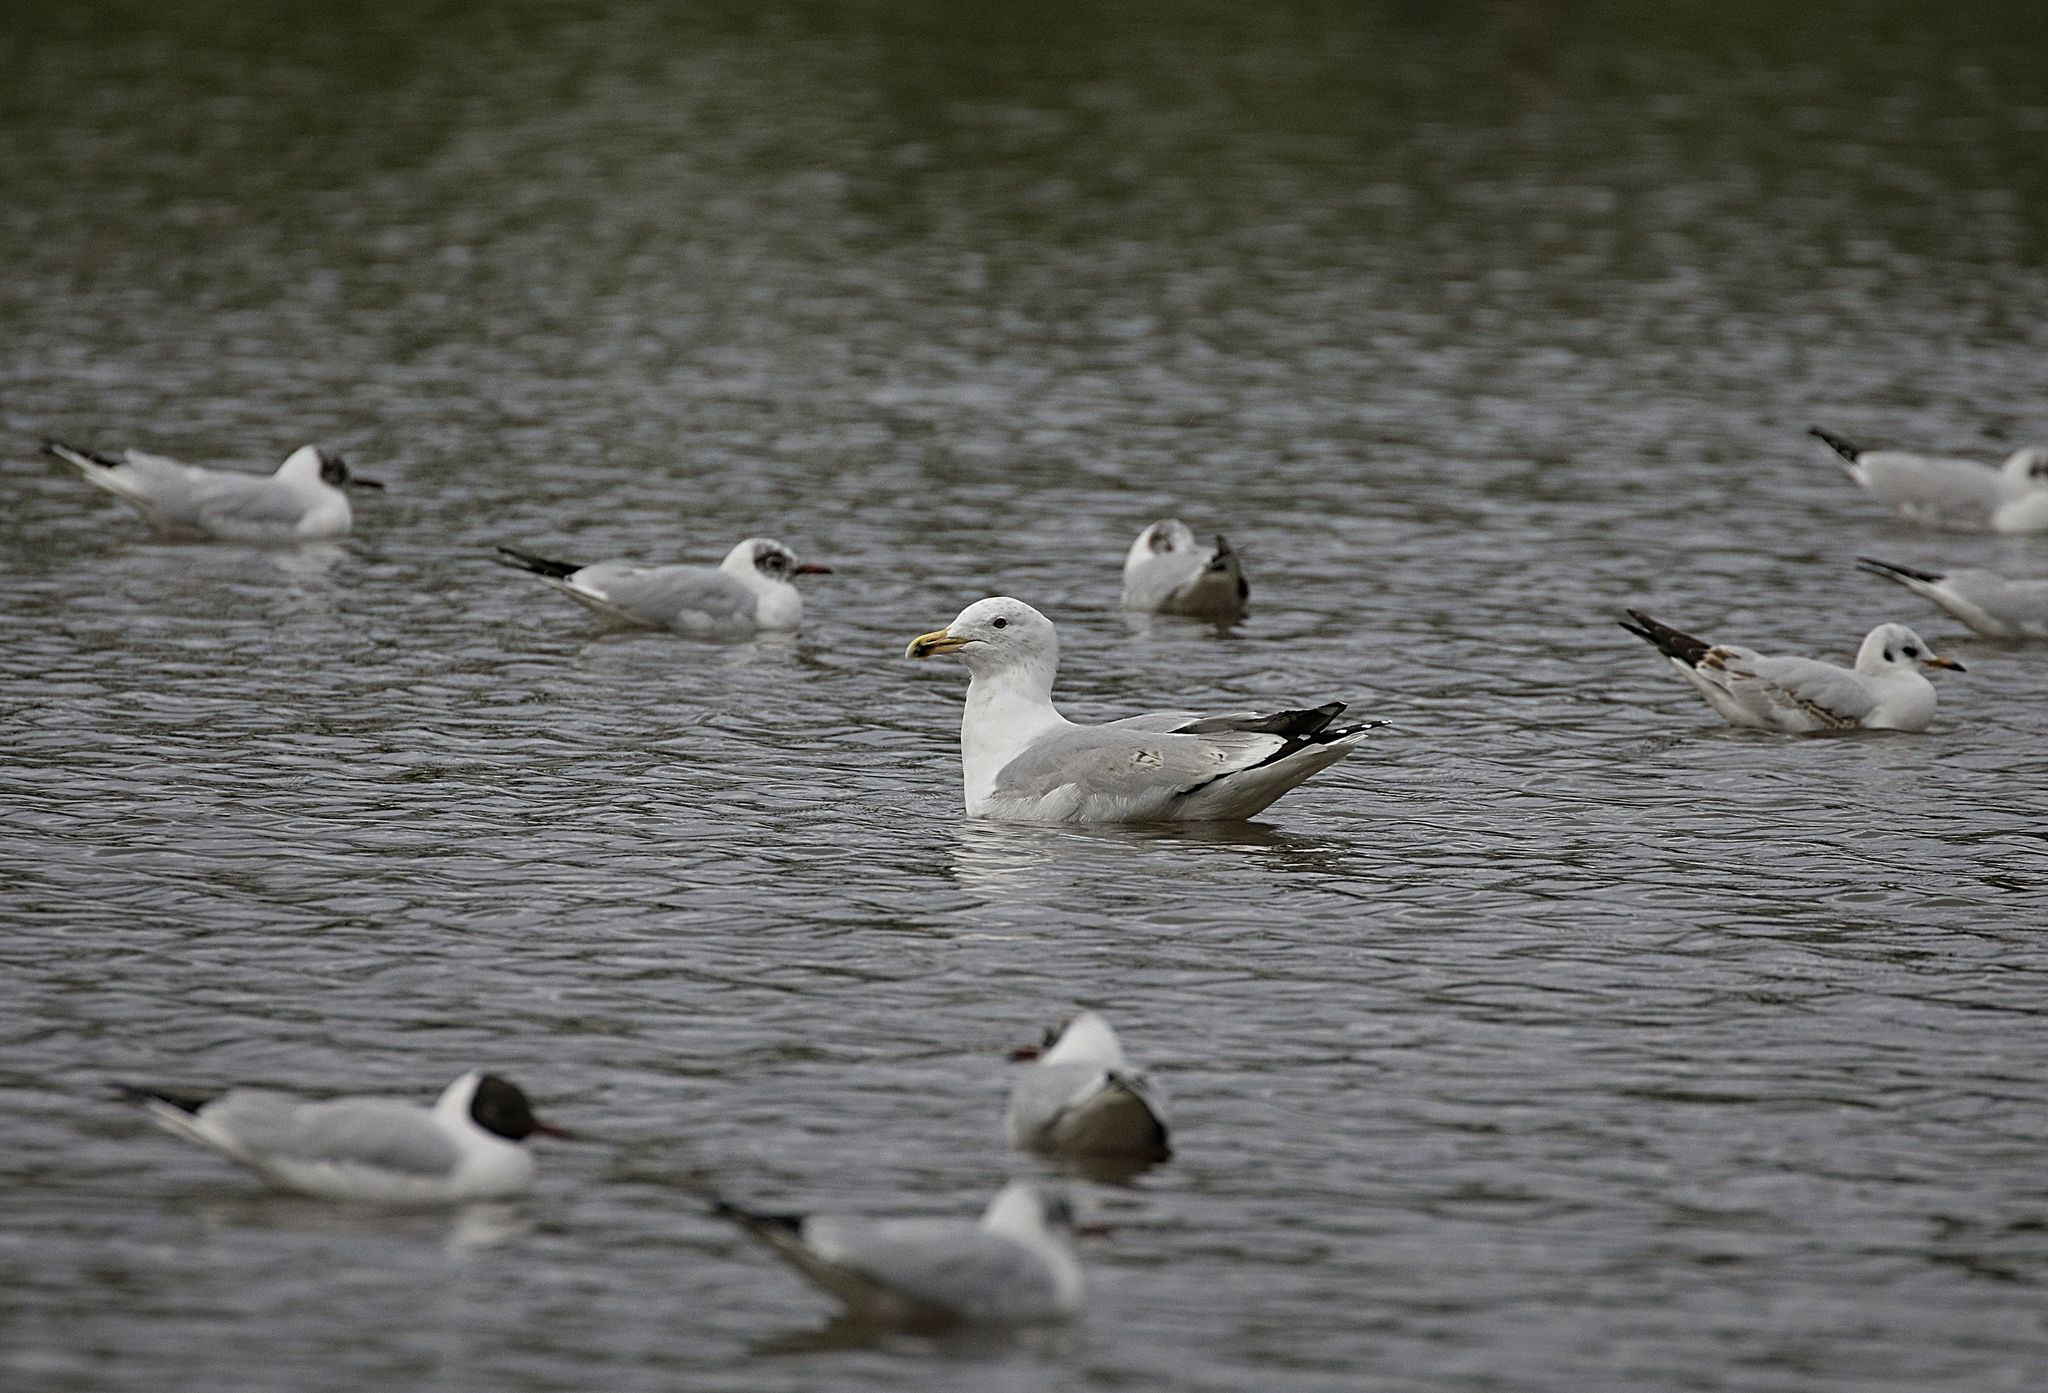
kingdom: Animalia
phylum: Chordata
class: Aves
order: Charadriiformes
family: Laridae
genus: Larus
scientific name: Larus argentatus
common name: Herring gull
